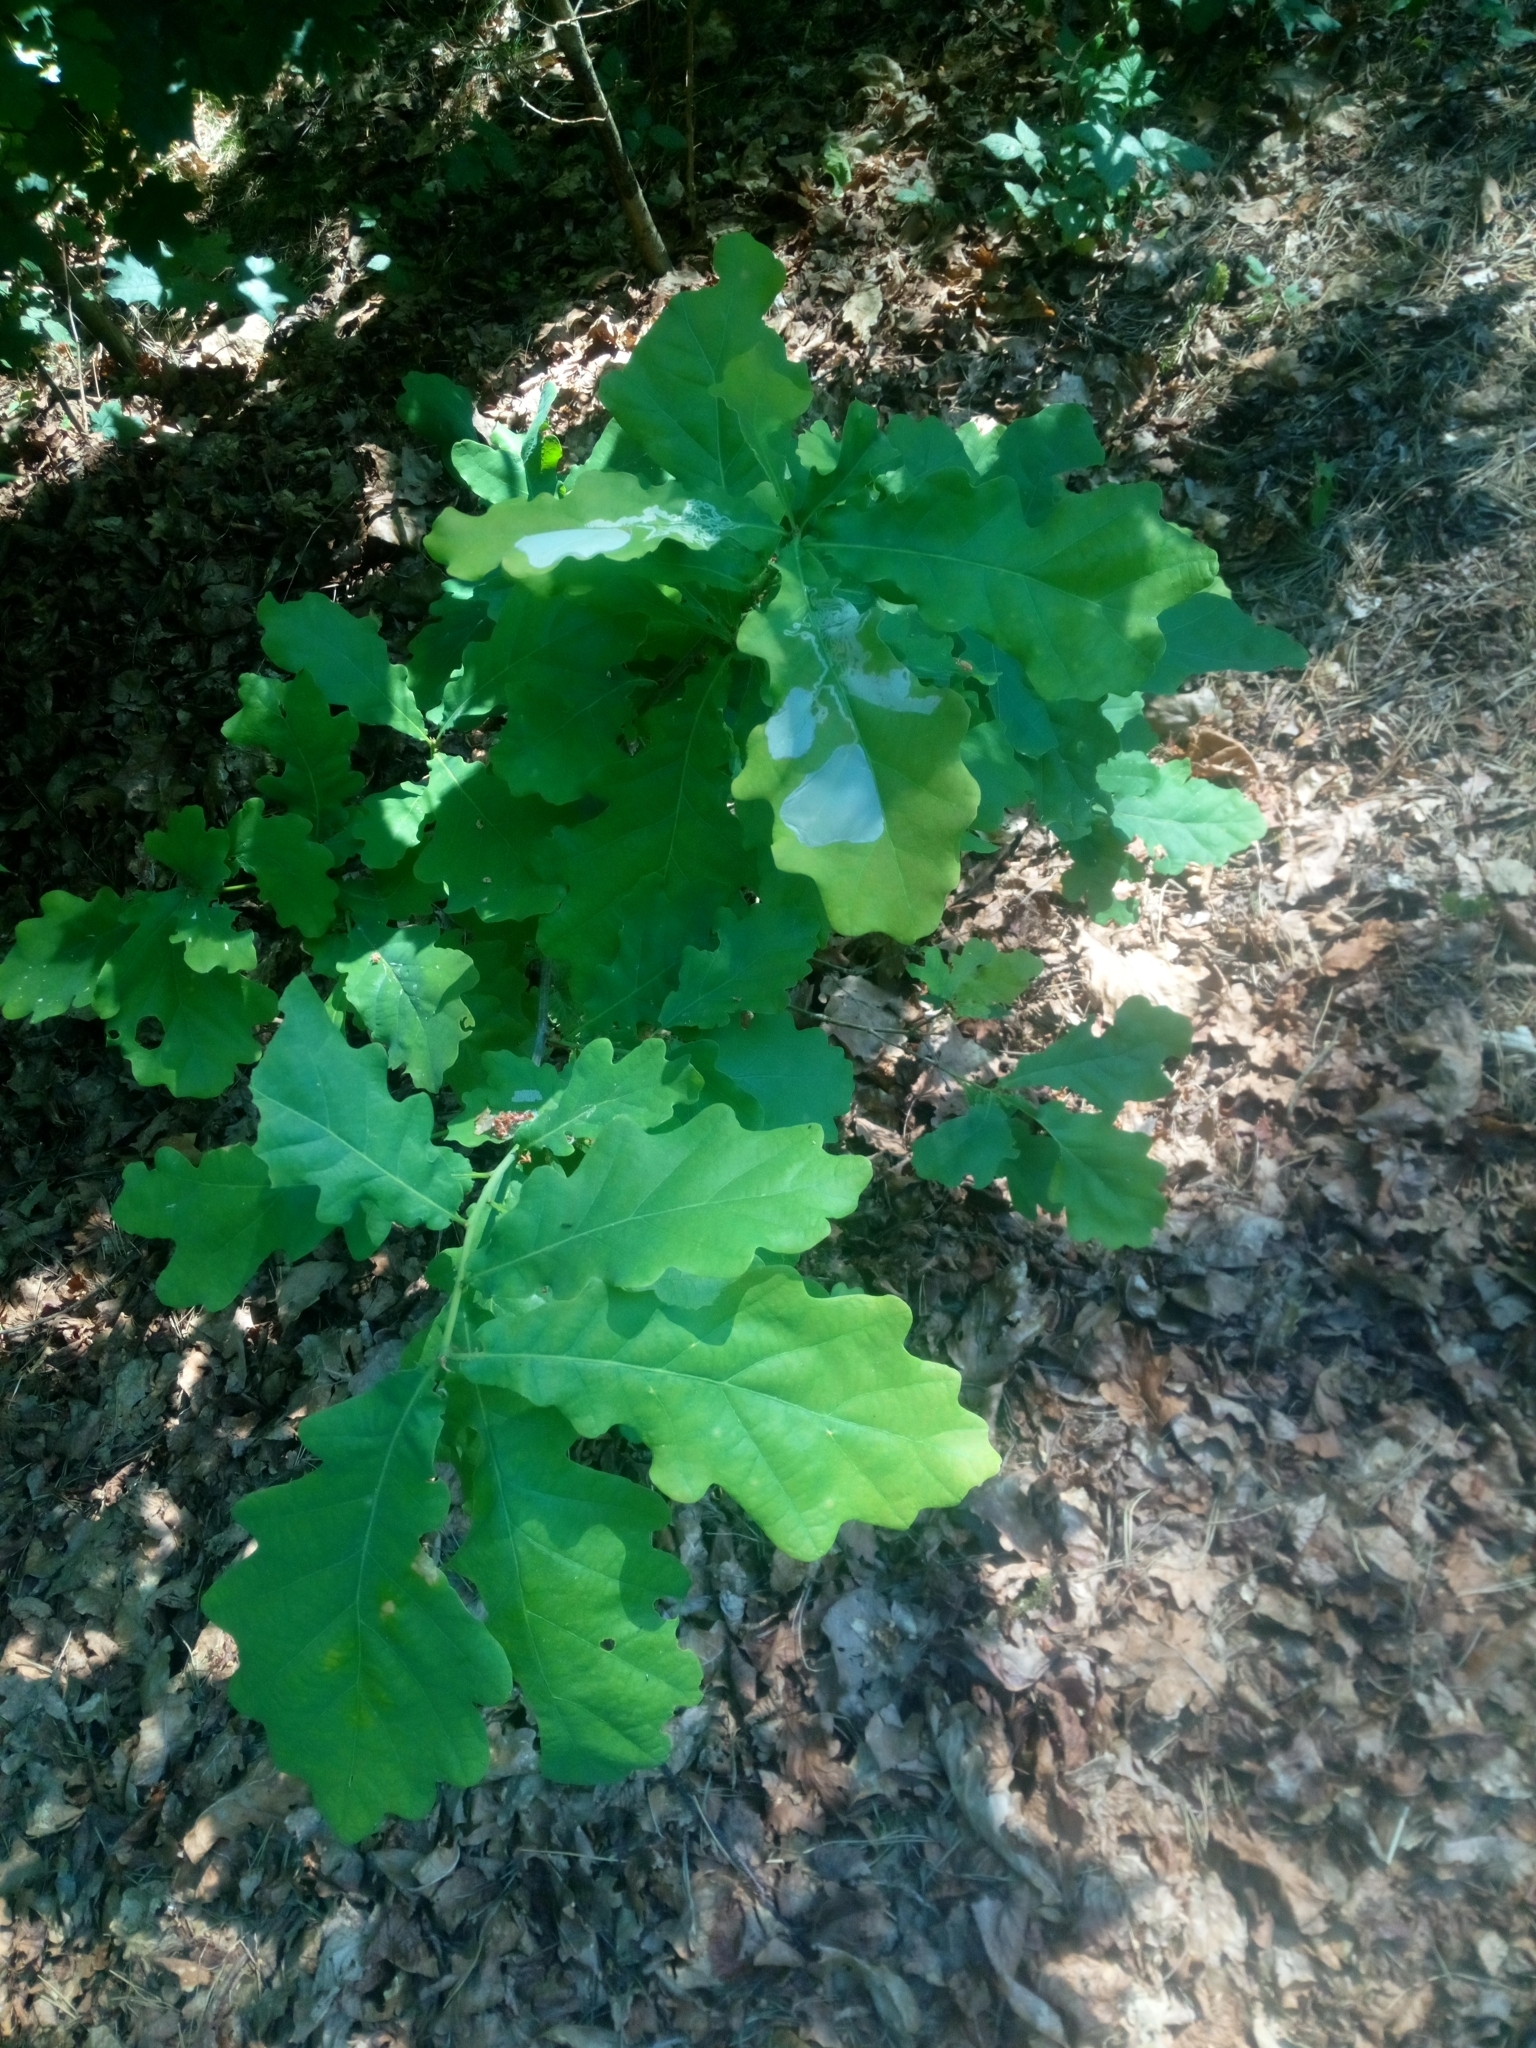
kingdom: Plantae
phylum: Tracheophyta
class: Magnoliopsida
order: Fagales
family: Fagaceae
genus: Quercus
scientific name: Quercus robur
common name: Pedunculate oak
